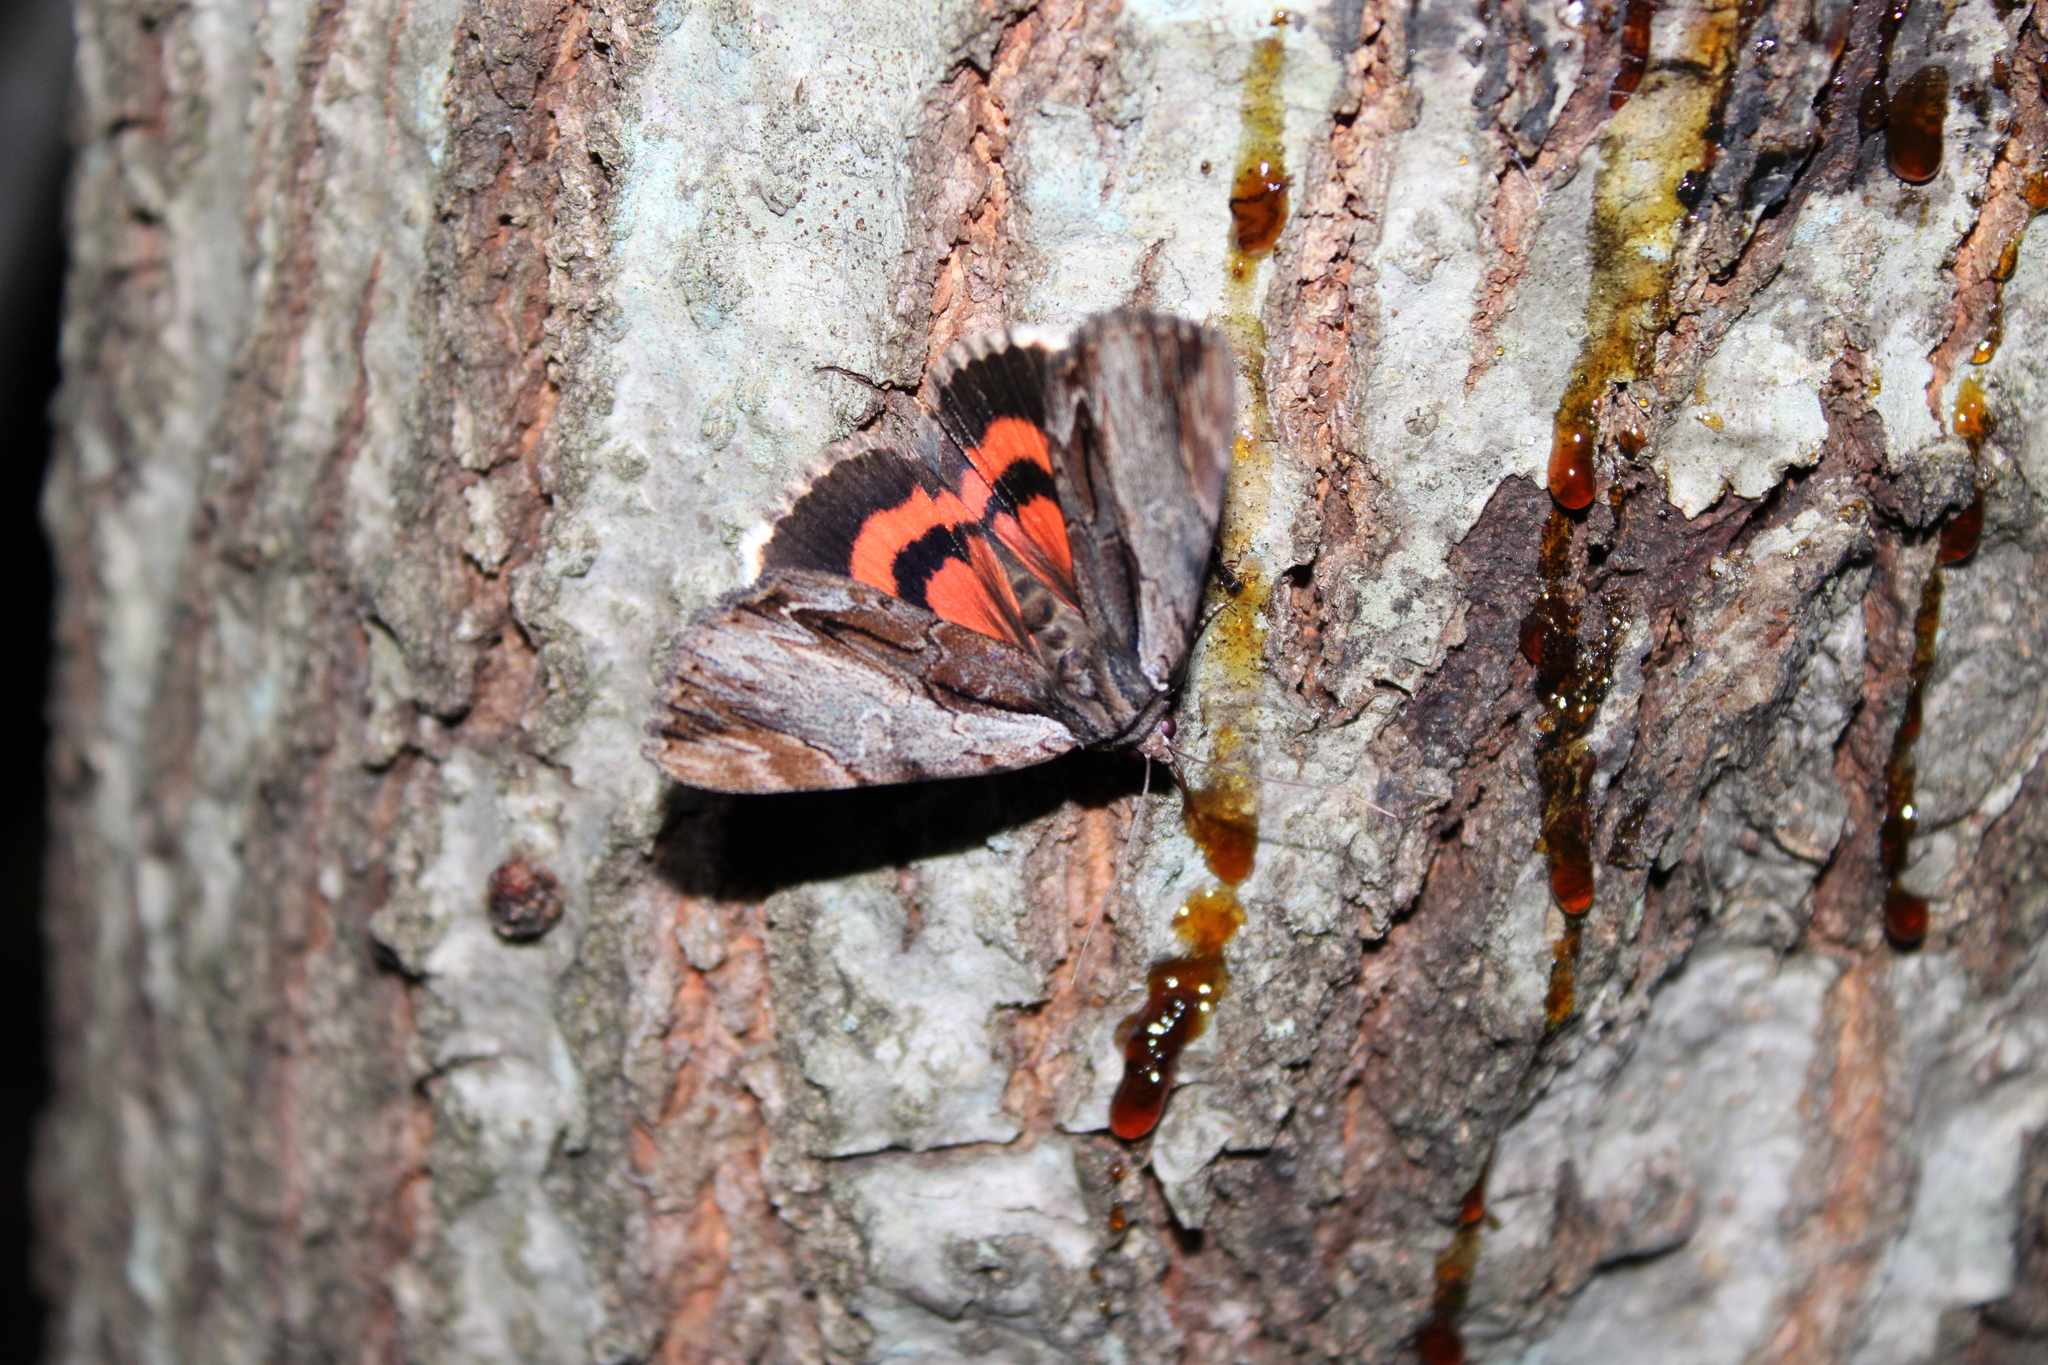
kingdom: Animalia
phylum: Arthropoda
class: Insecta
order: Lepidoptera
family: Erebidae
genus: Catocala
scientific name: Catocala ultronia
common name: Ultronia underwing
